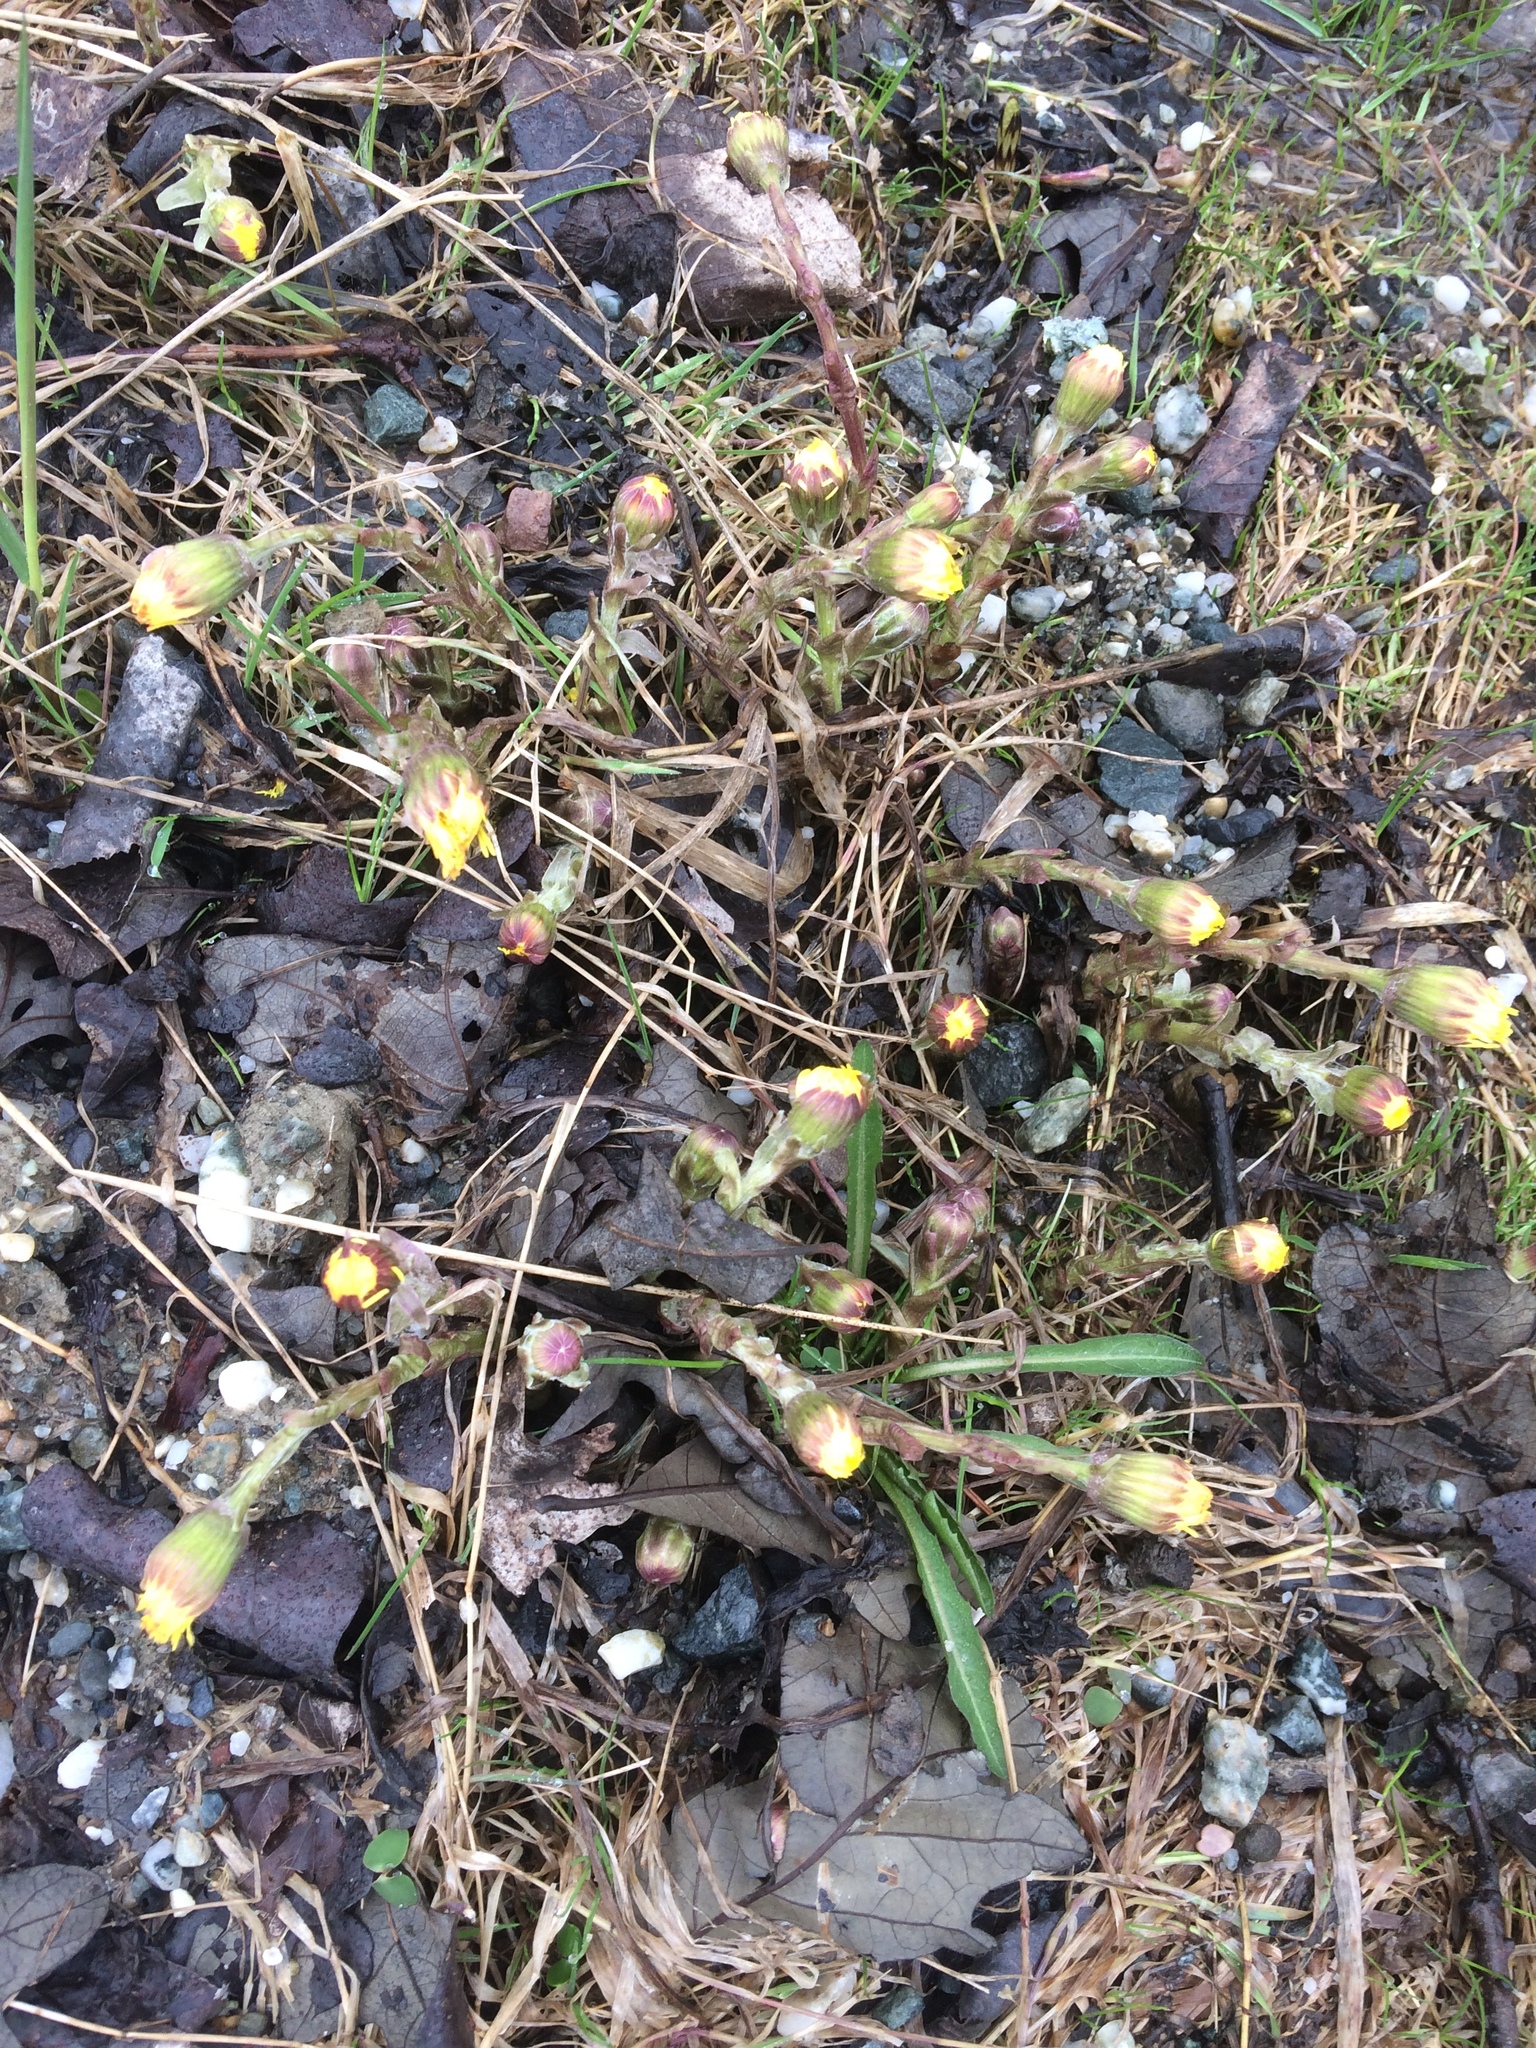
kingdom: Plantae
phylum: Tracheophyta
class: Magnoliopsida
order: Asterales
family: Asteraceae
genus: Tussilago
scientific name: Tussilago farfara
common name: Coltsfoot
